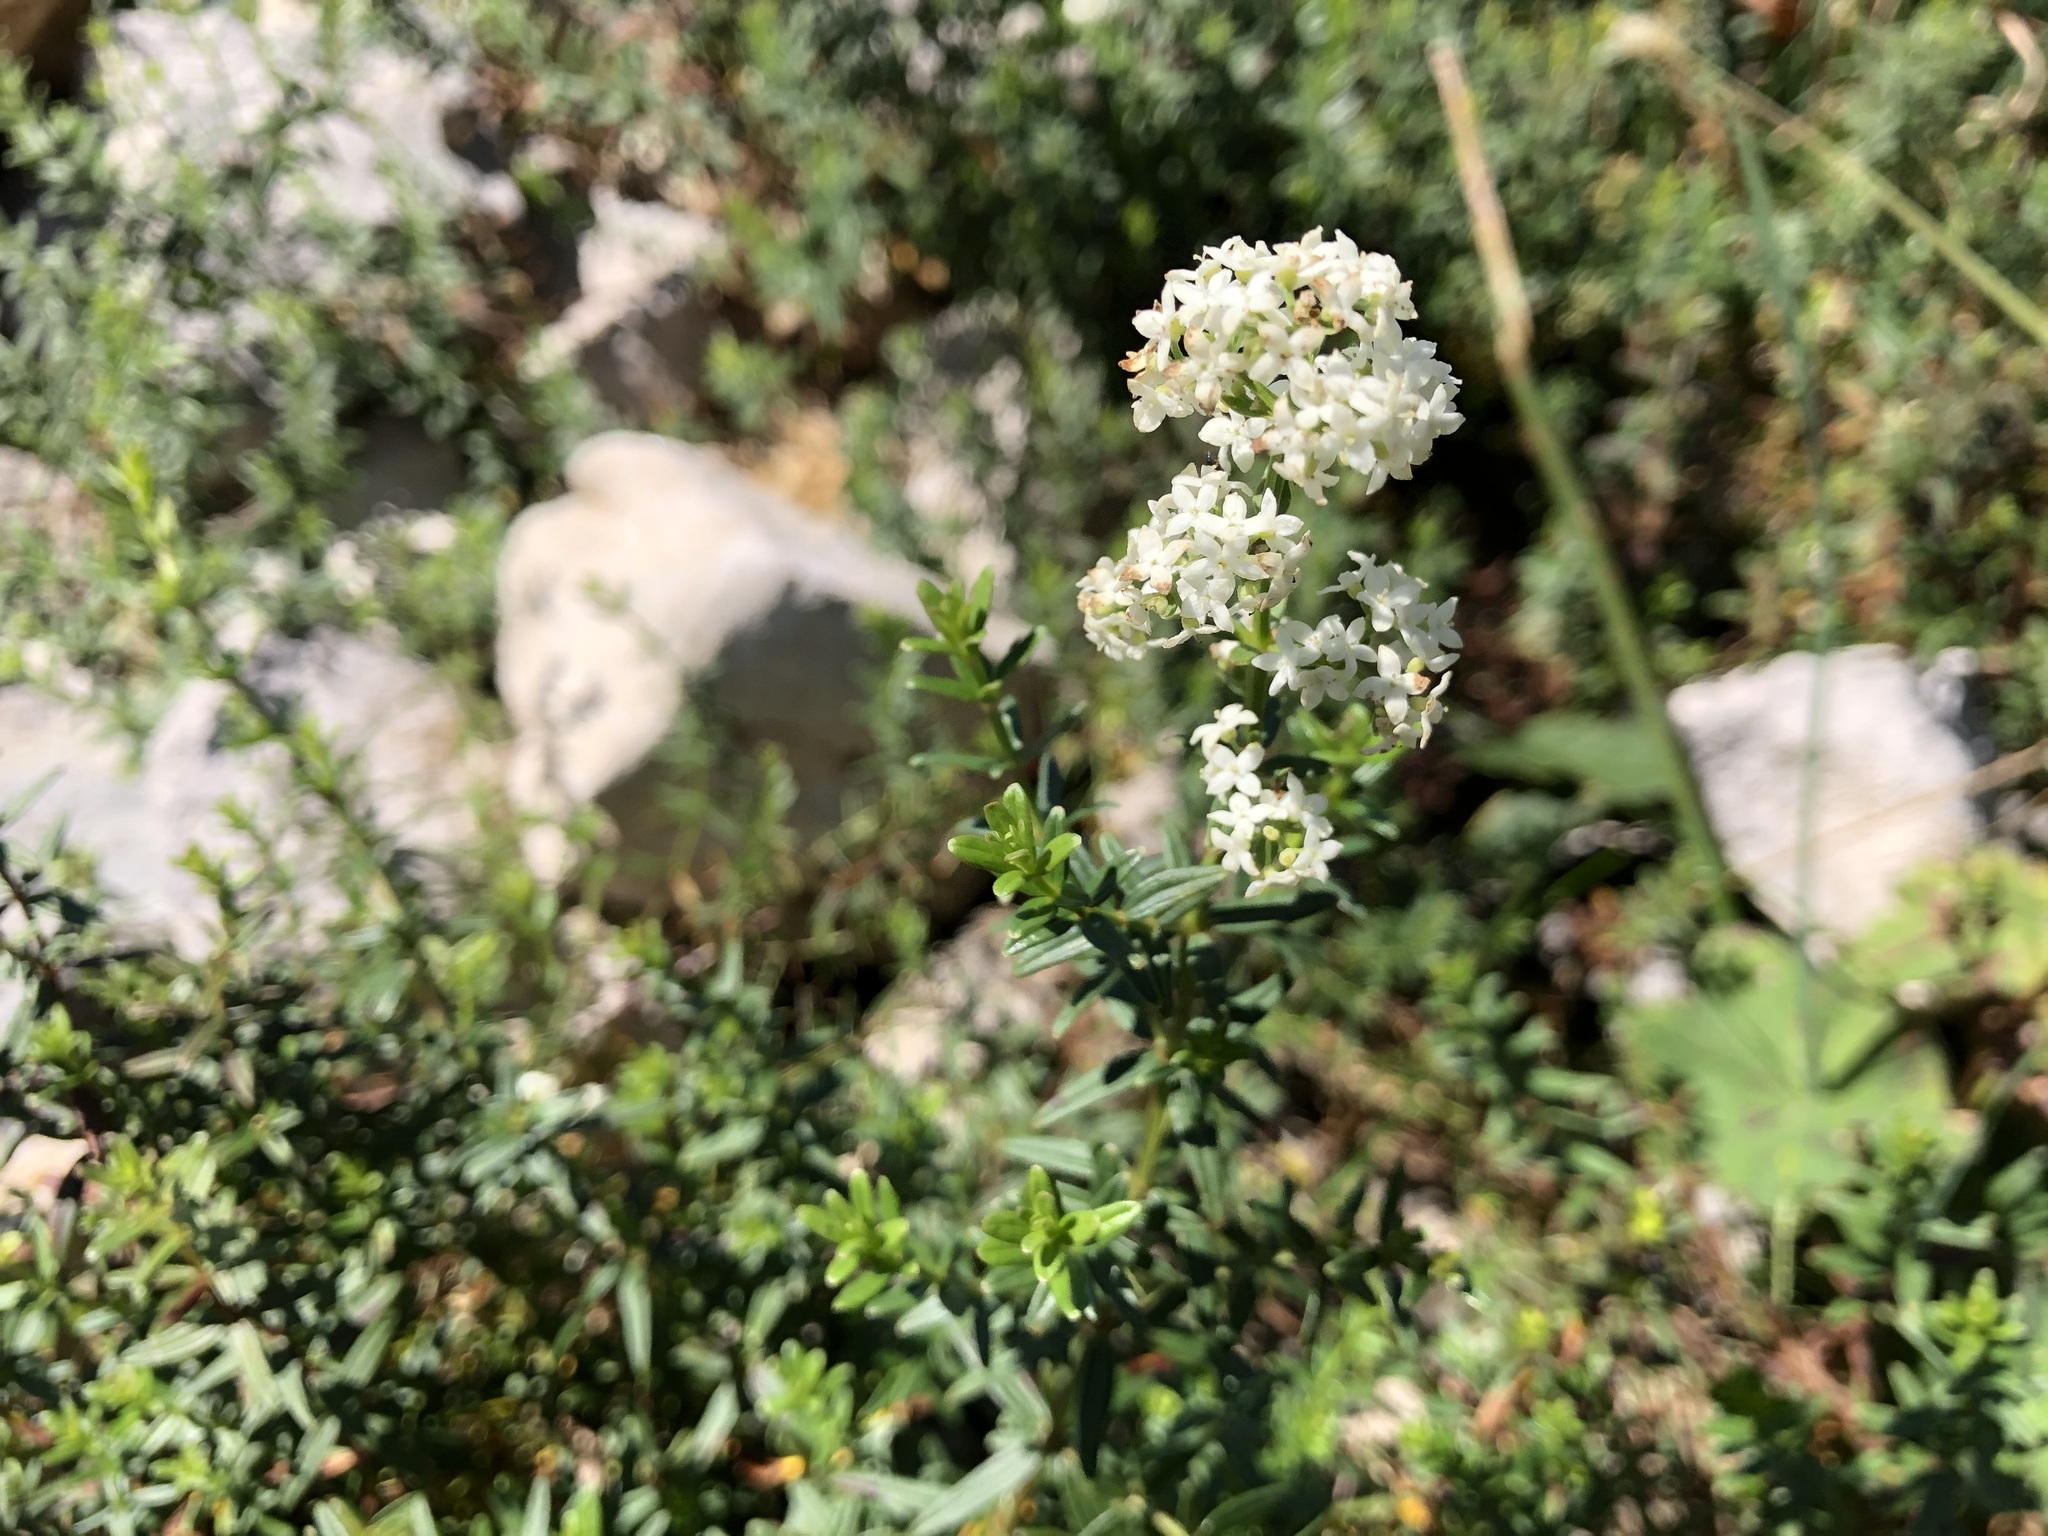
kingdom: Plantae
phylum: Tracheophyta
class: Magnoliopsida
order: Gentianales
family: Rubiaceae
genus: Galium
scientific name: Galium boreale
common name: Northern bedstraw
